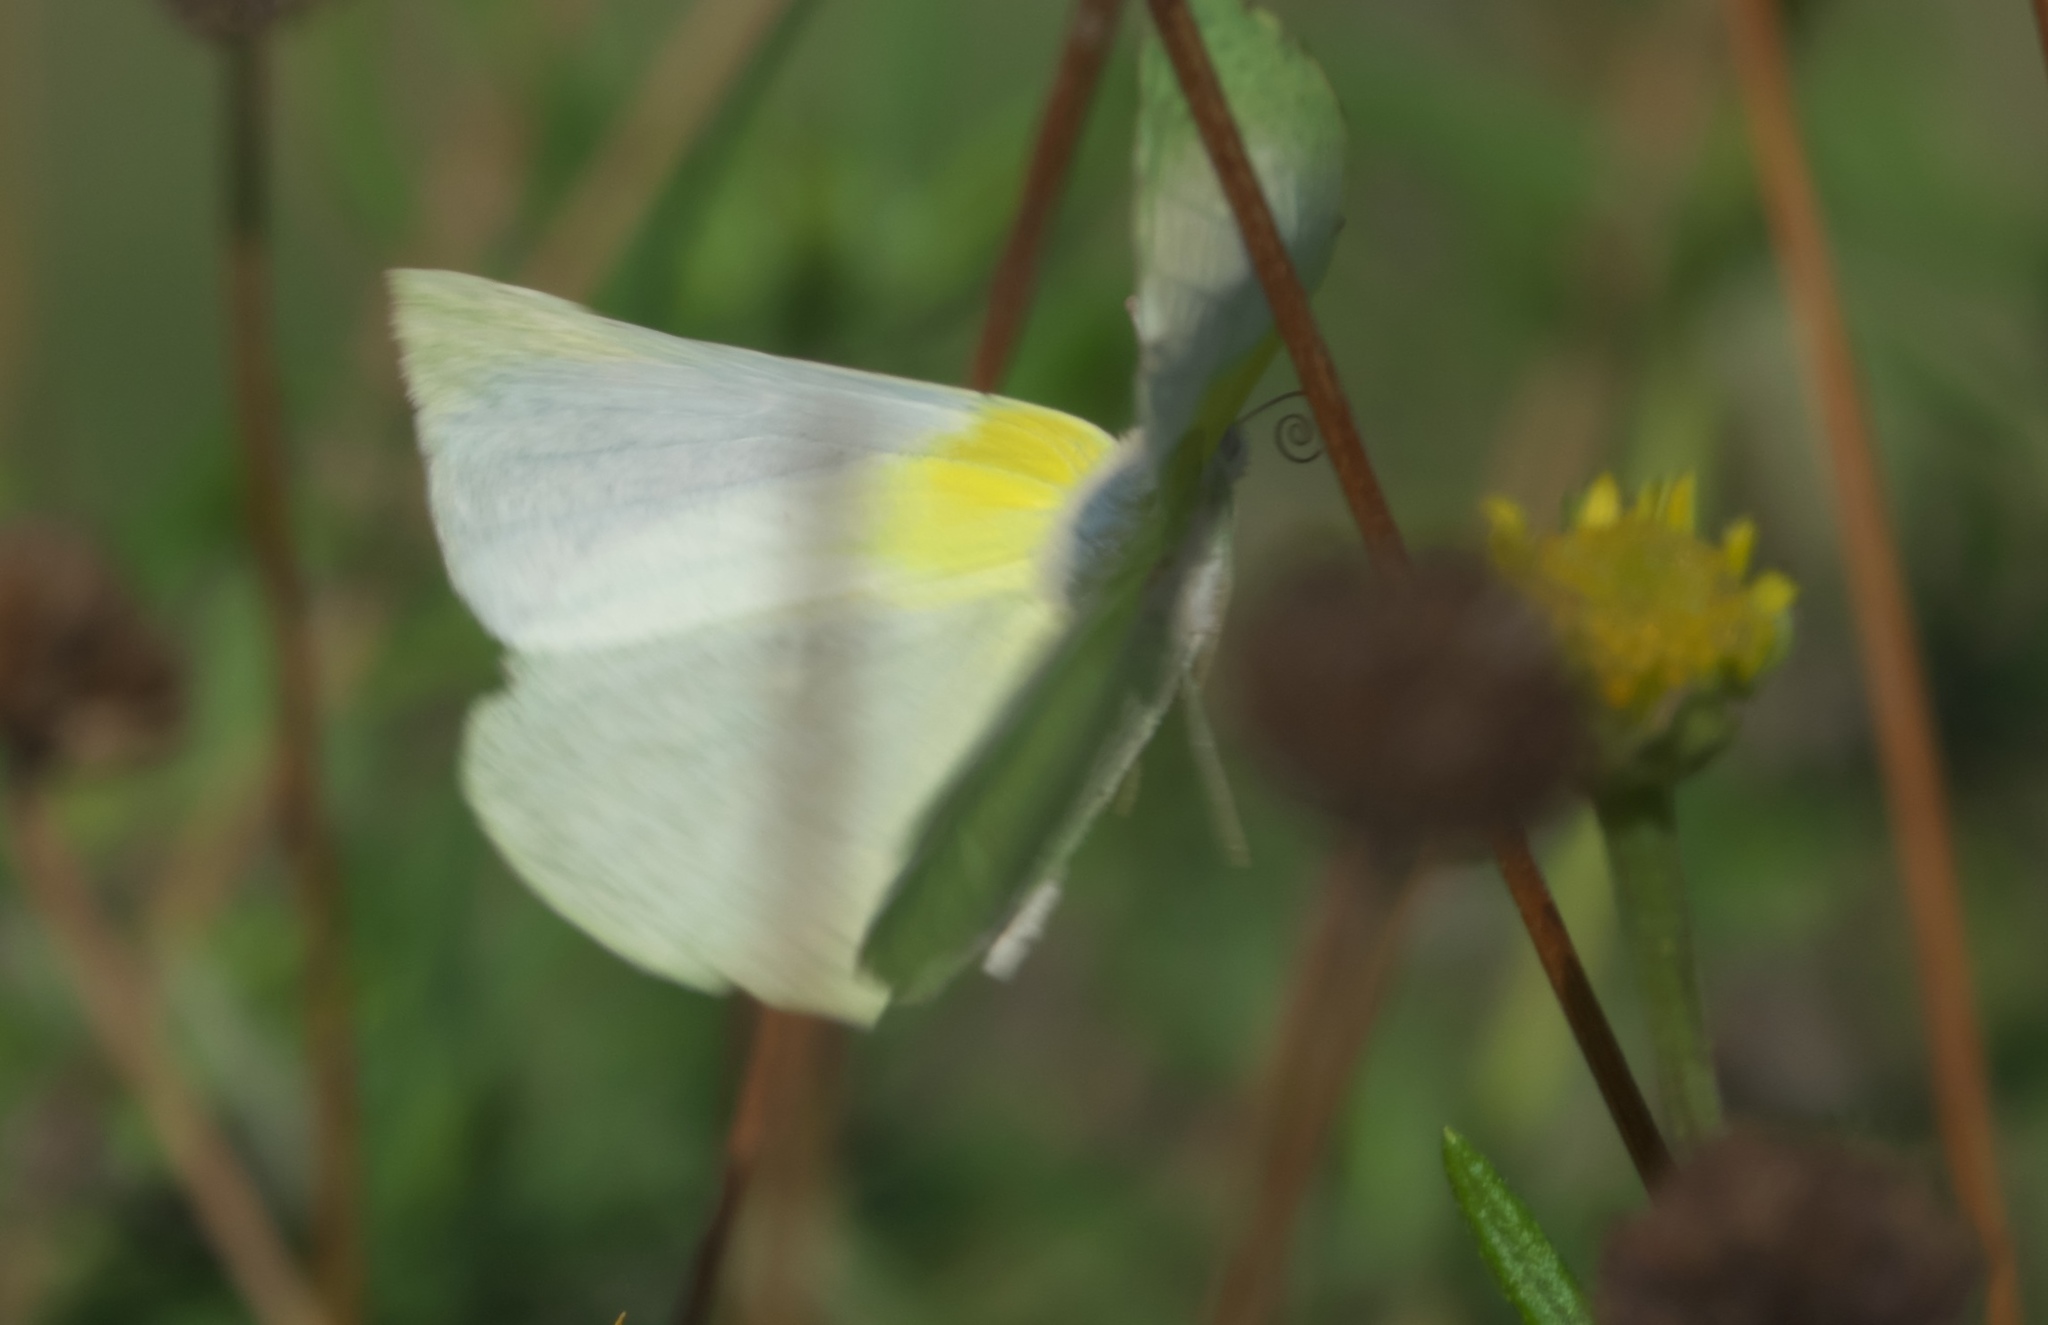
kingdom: Animalia
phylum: Arthropoda
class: Insecta
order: Lepidoptera
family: Pieridae
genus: Kricogonia
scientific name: Kricogonia lyside
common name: Guayacan sulphur,
